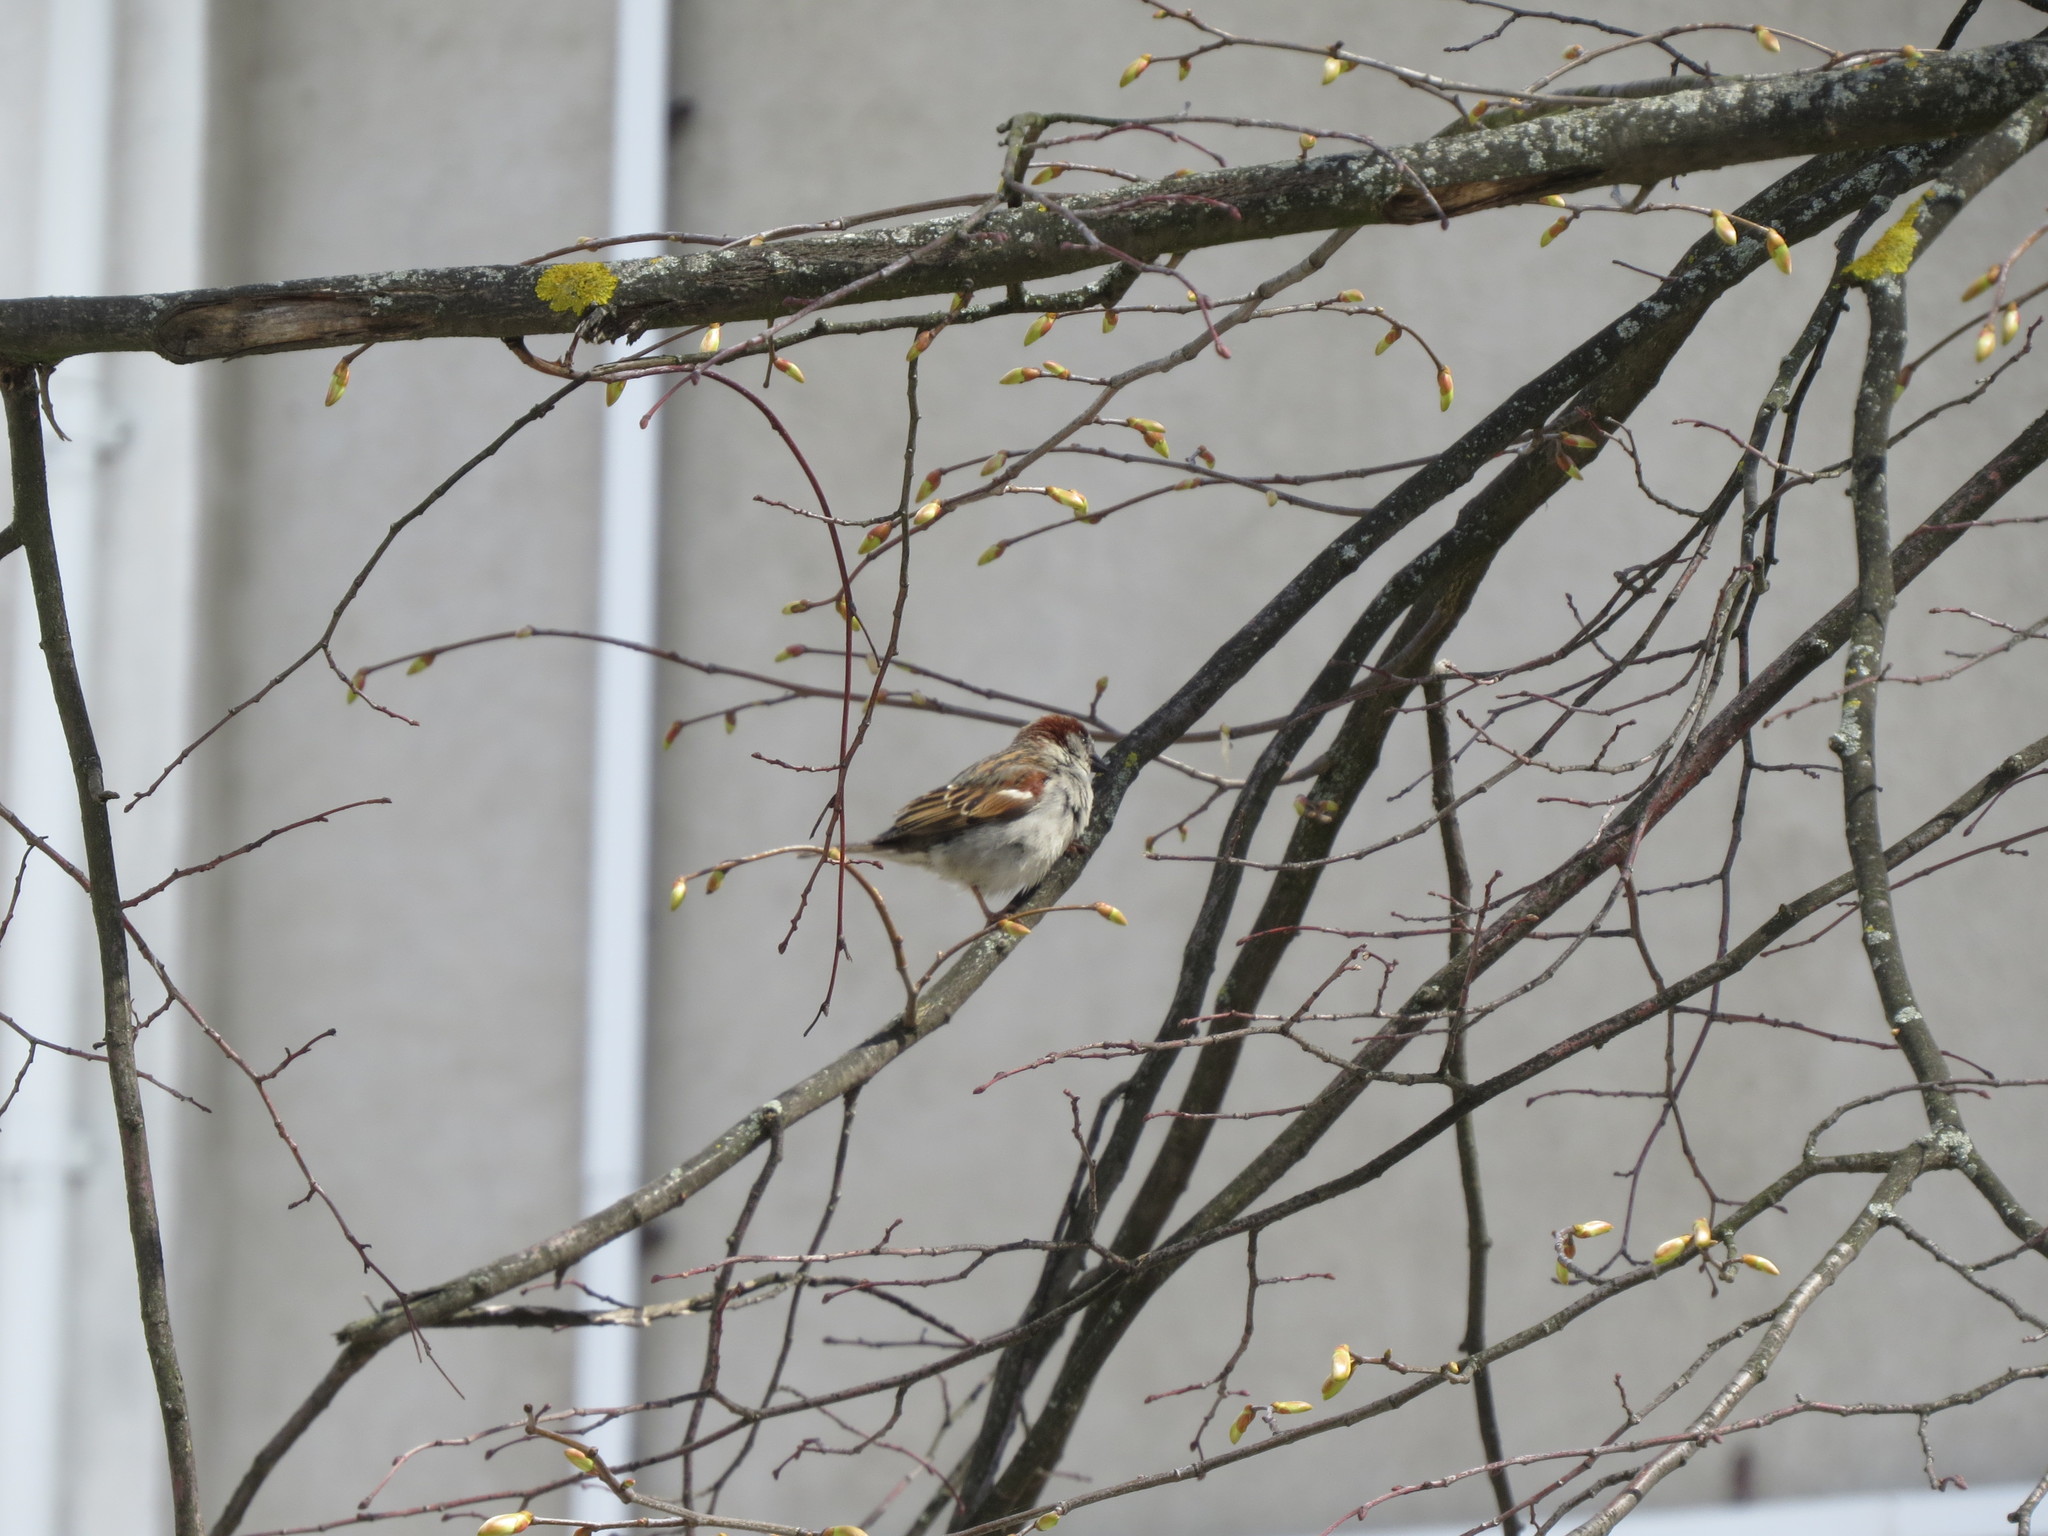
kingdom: Animalia
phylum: Chordata
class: Aves
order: Passeriformes
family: Passeridae
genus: Passer
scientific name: Passer domesticus
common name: House sparrow
